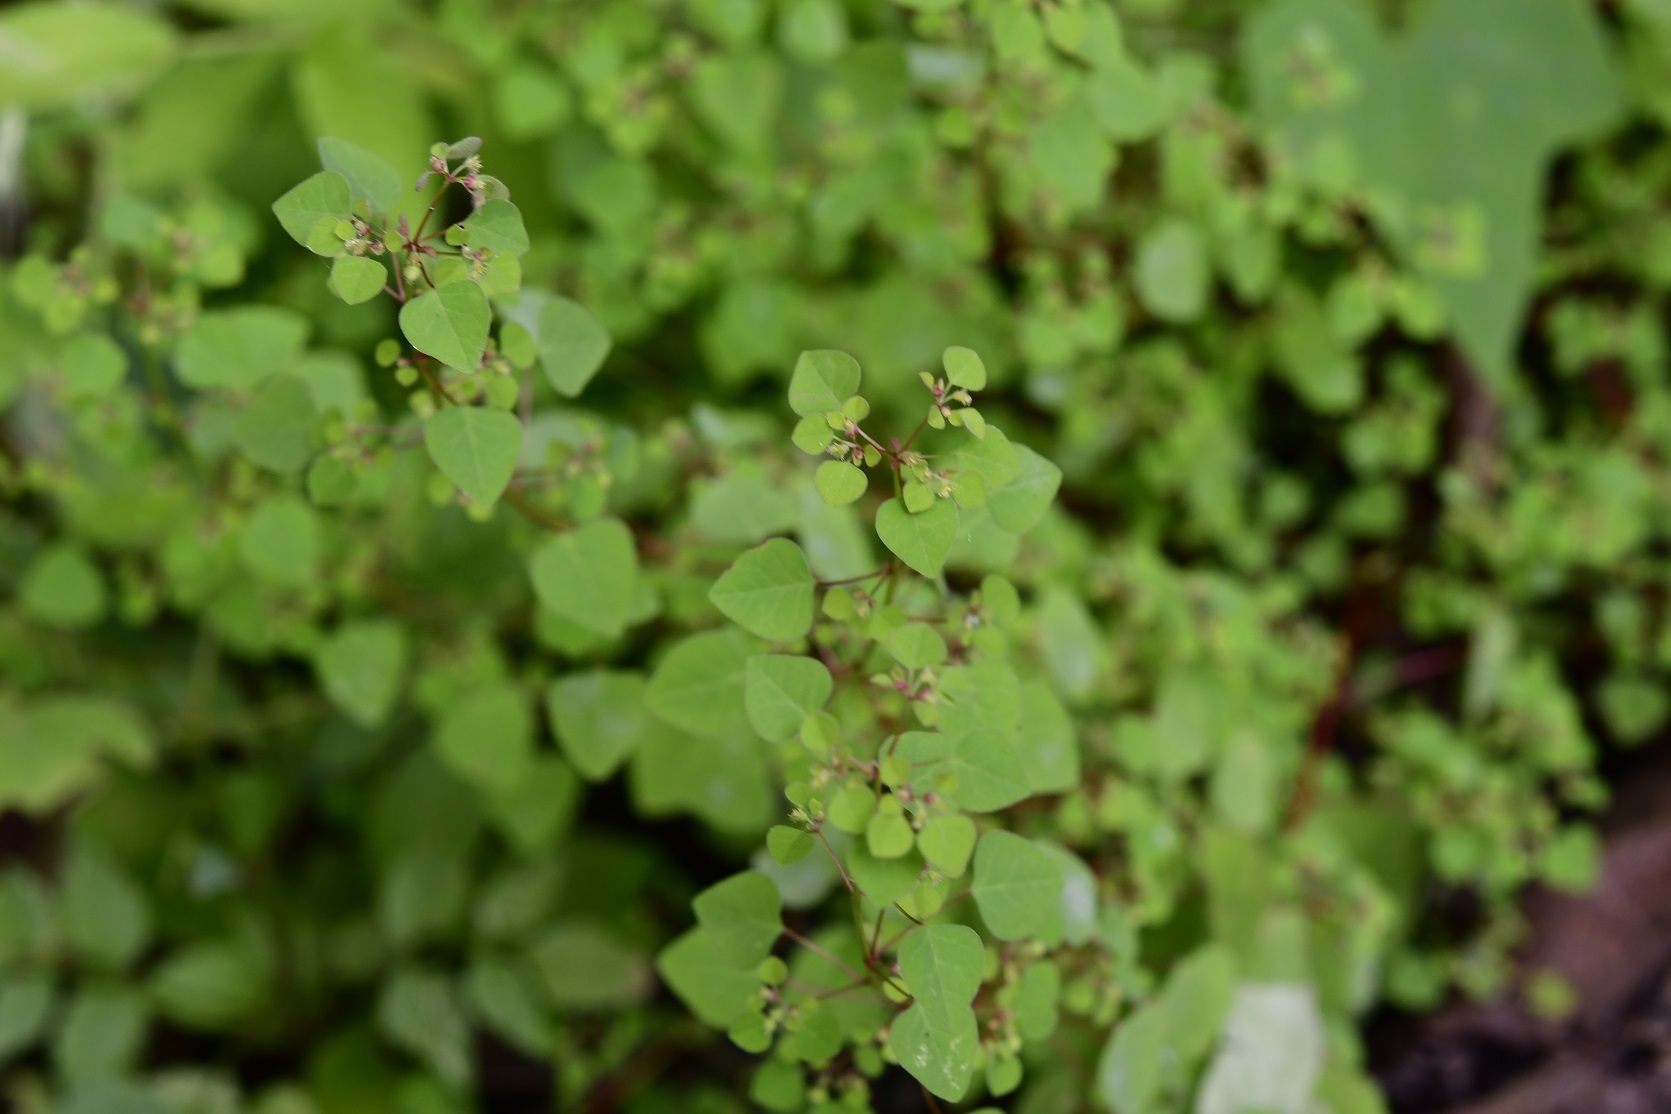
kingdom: Plantae
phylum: Tracheophyta
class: Magnoliopsida
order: Malpighiales
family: Euphorbiaceae
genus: Euphorbia
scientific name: Euphorbia breedlovei
